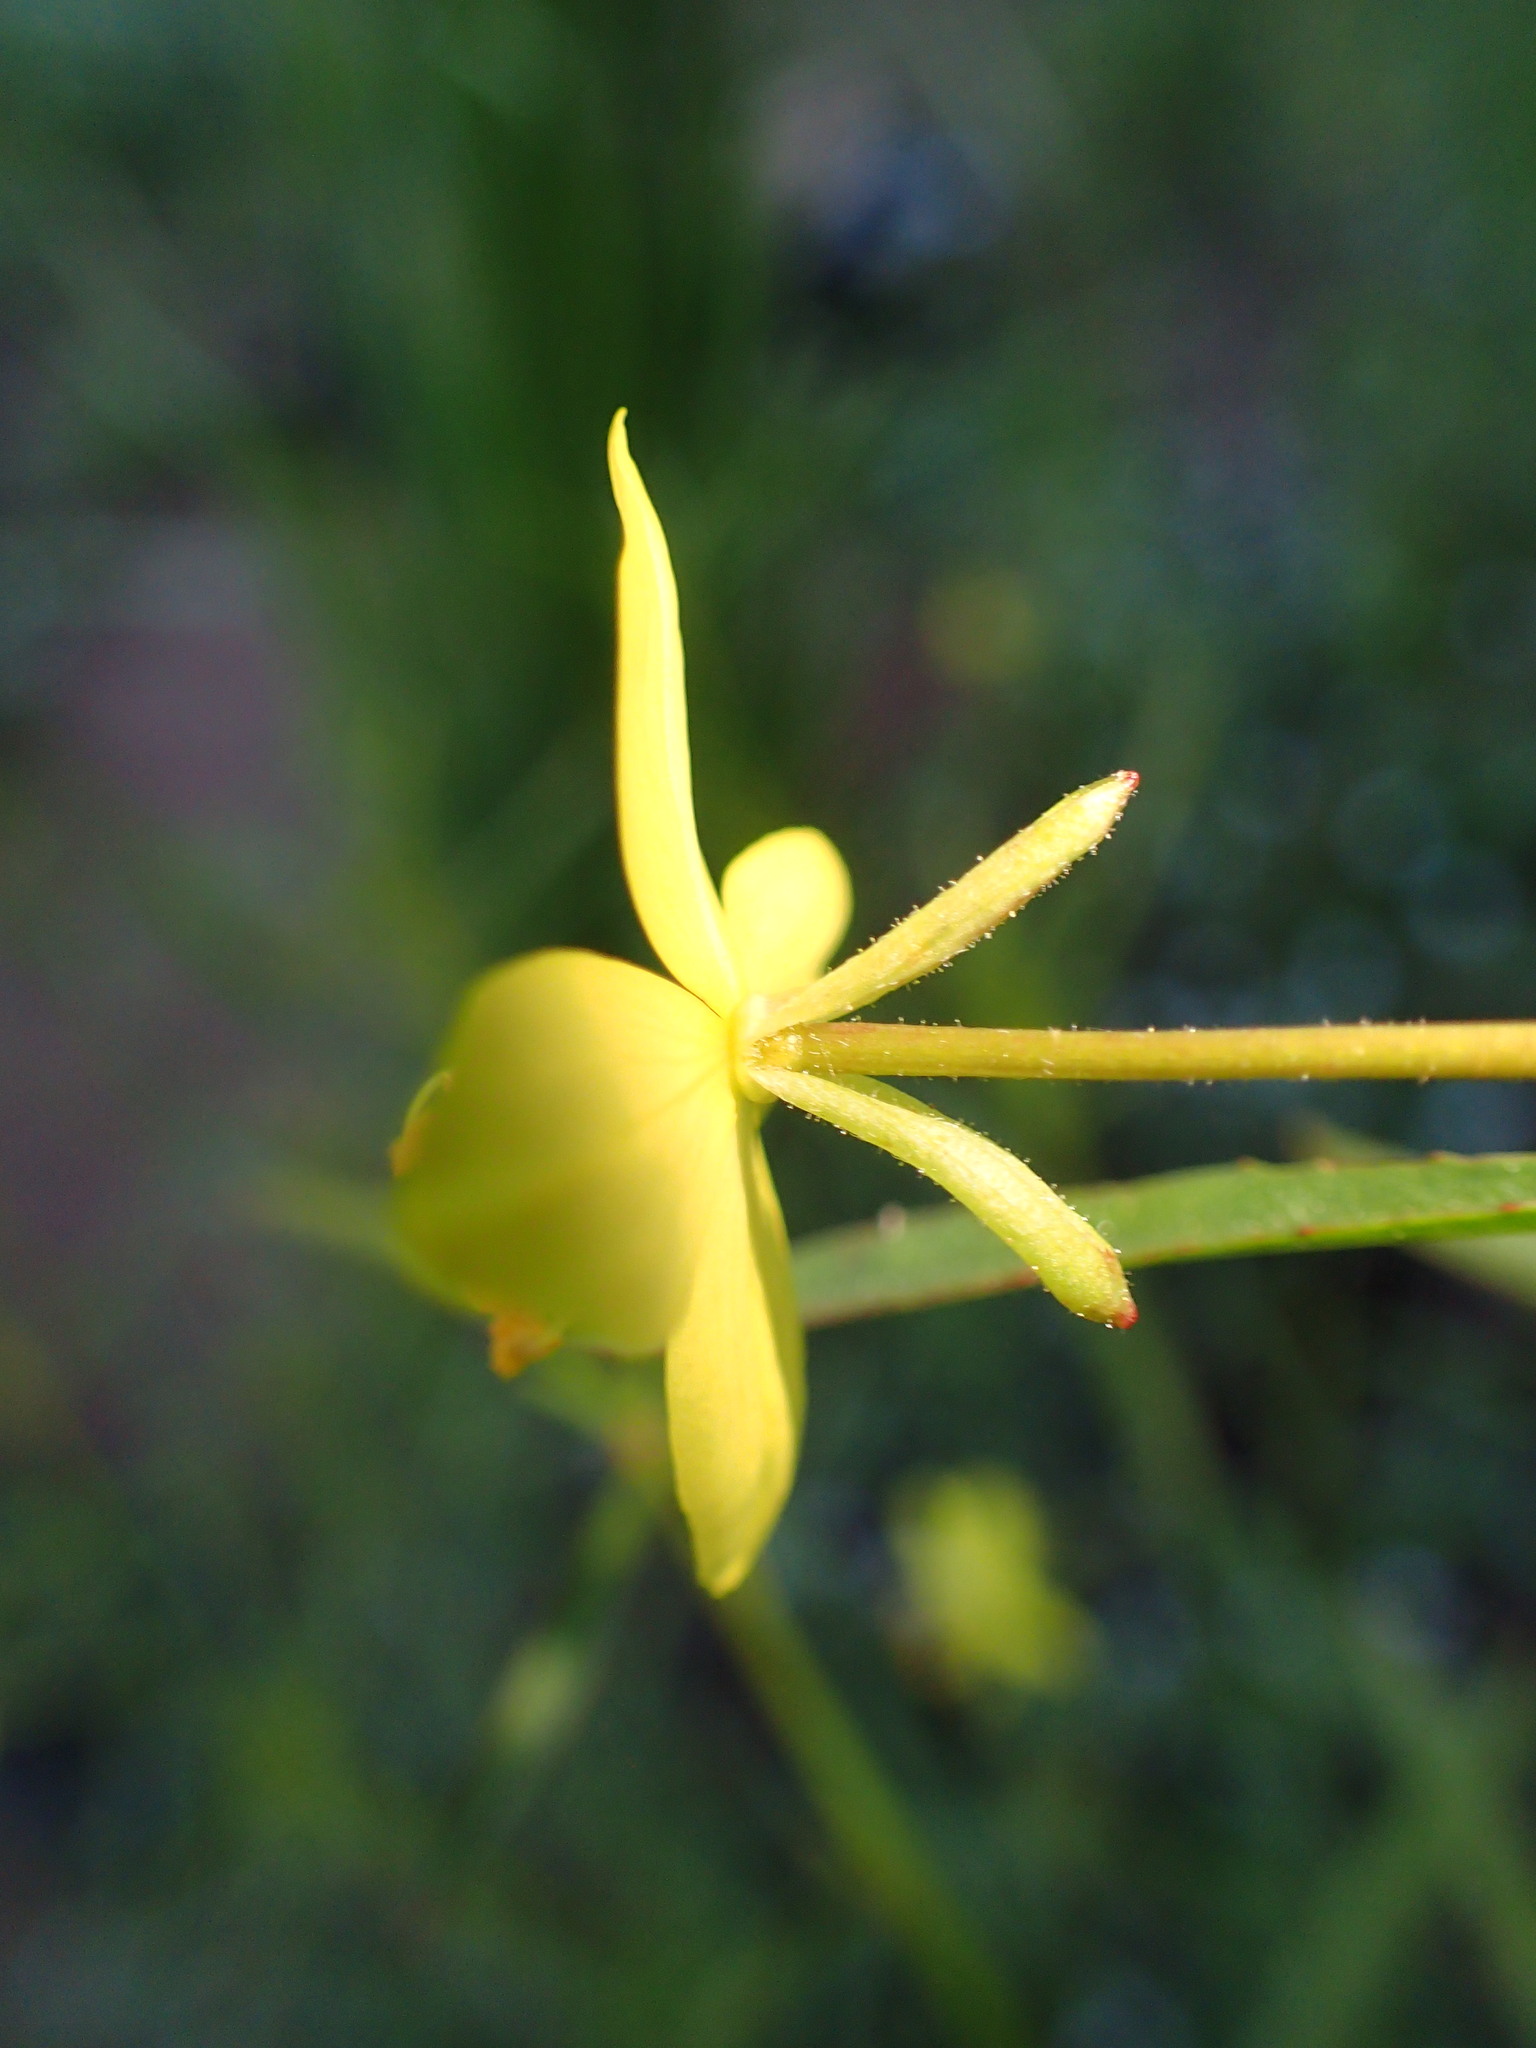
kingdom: Plantae
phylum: Tracheophyta
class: Magnoliopsida
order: Myrtales
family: Onagraceae
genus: Eulobus
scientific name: Eulobus californicus
